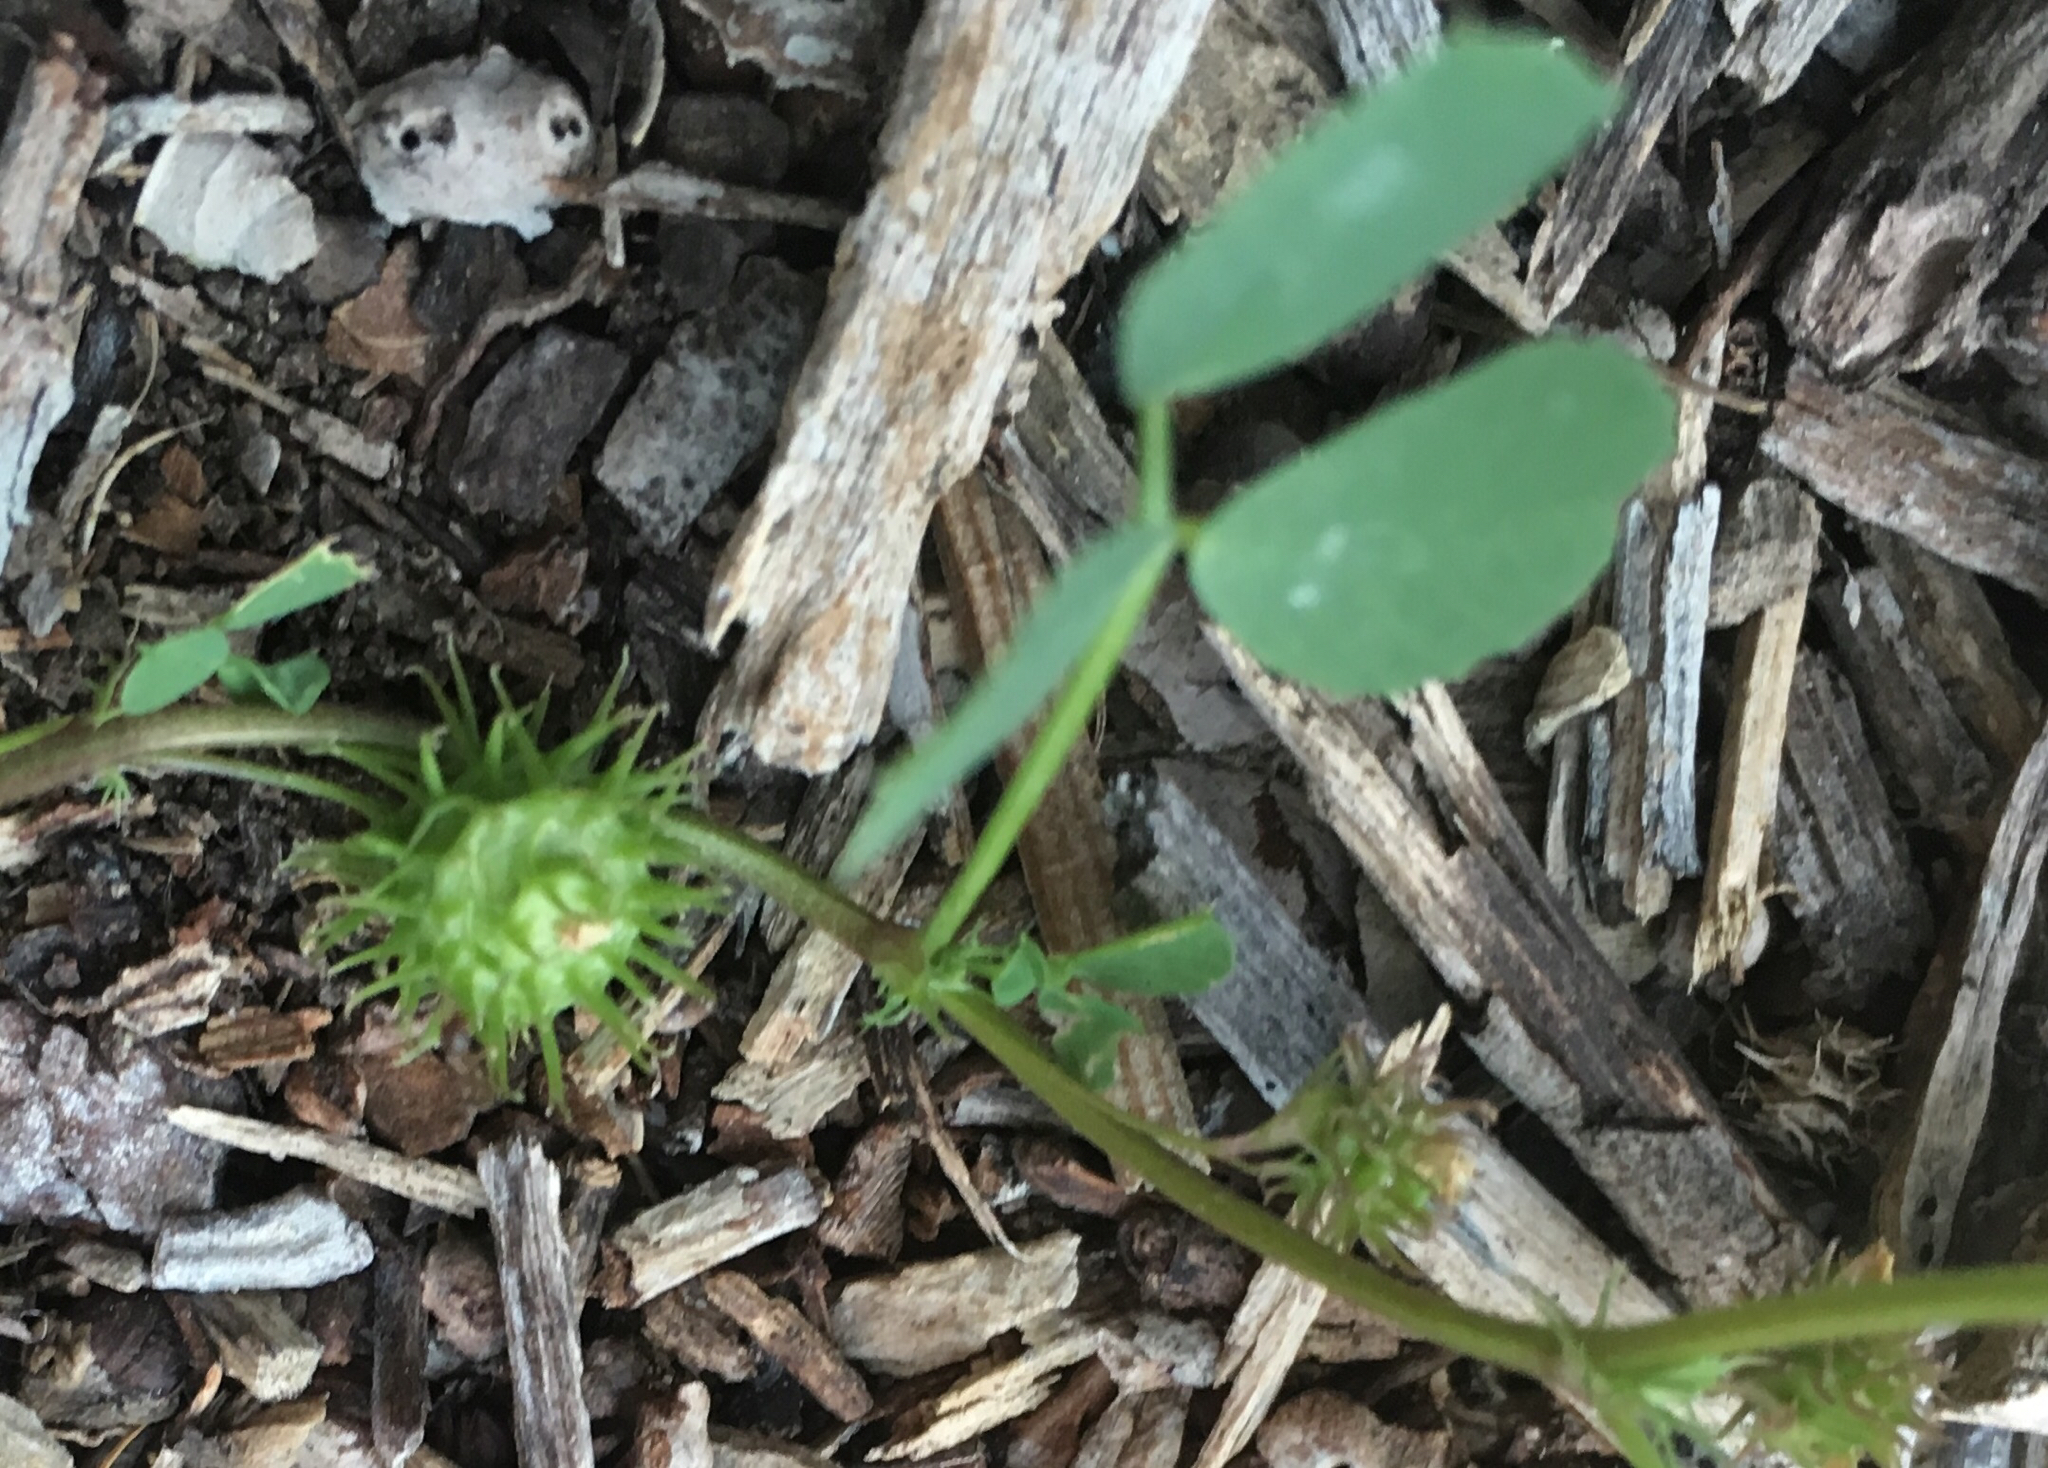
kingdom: Plantae
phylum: Tracheophyta
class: Magnoliopsida
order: Fabales
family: Fabaceae
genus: Medicago
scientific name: Medicago polymorpha
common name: Burclover
